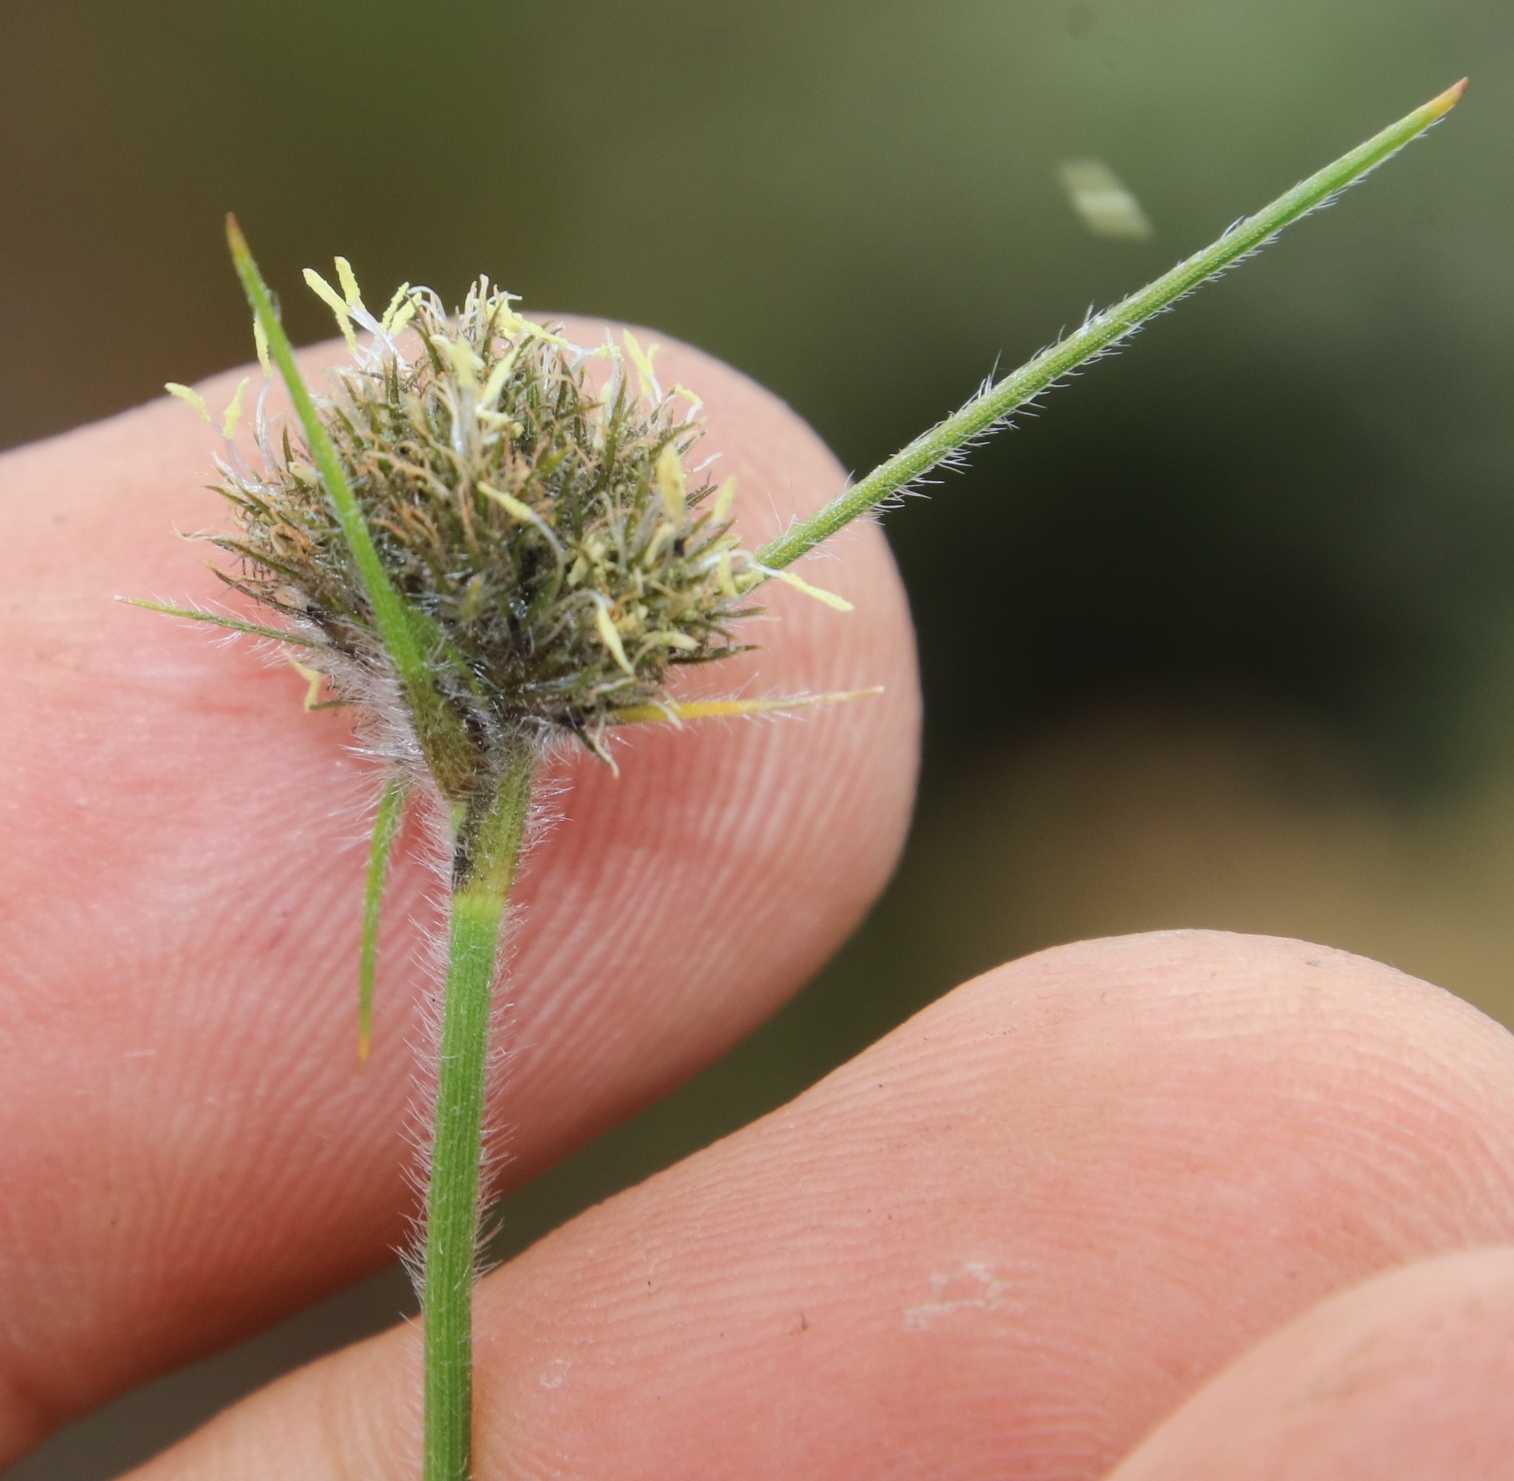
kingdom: Plantae
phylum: Tracheophyta
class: Liliopsida
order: Poales
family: Cyperaceae
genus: Fuirena
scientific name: Fuirena hirsuta
